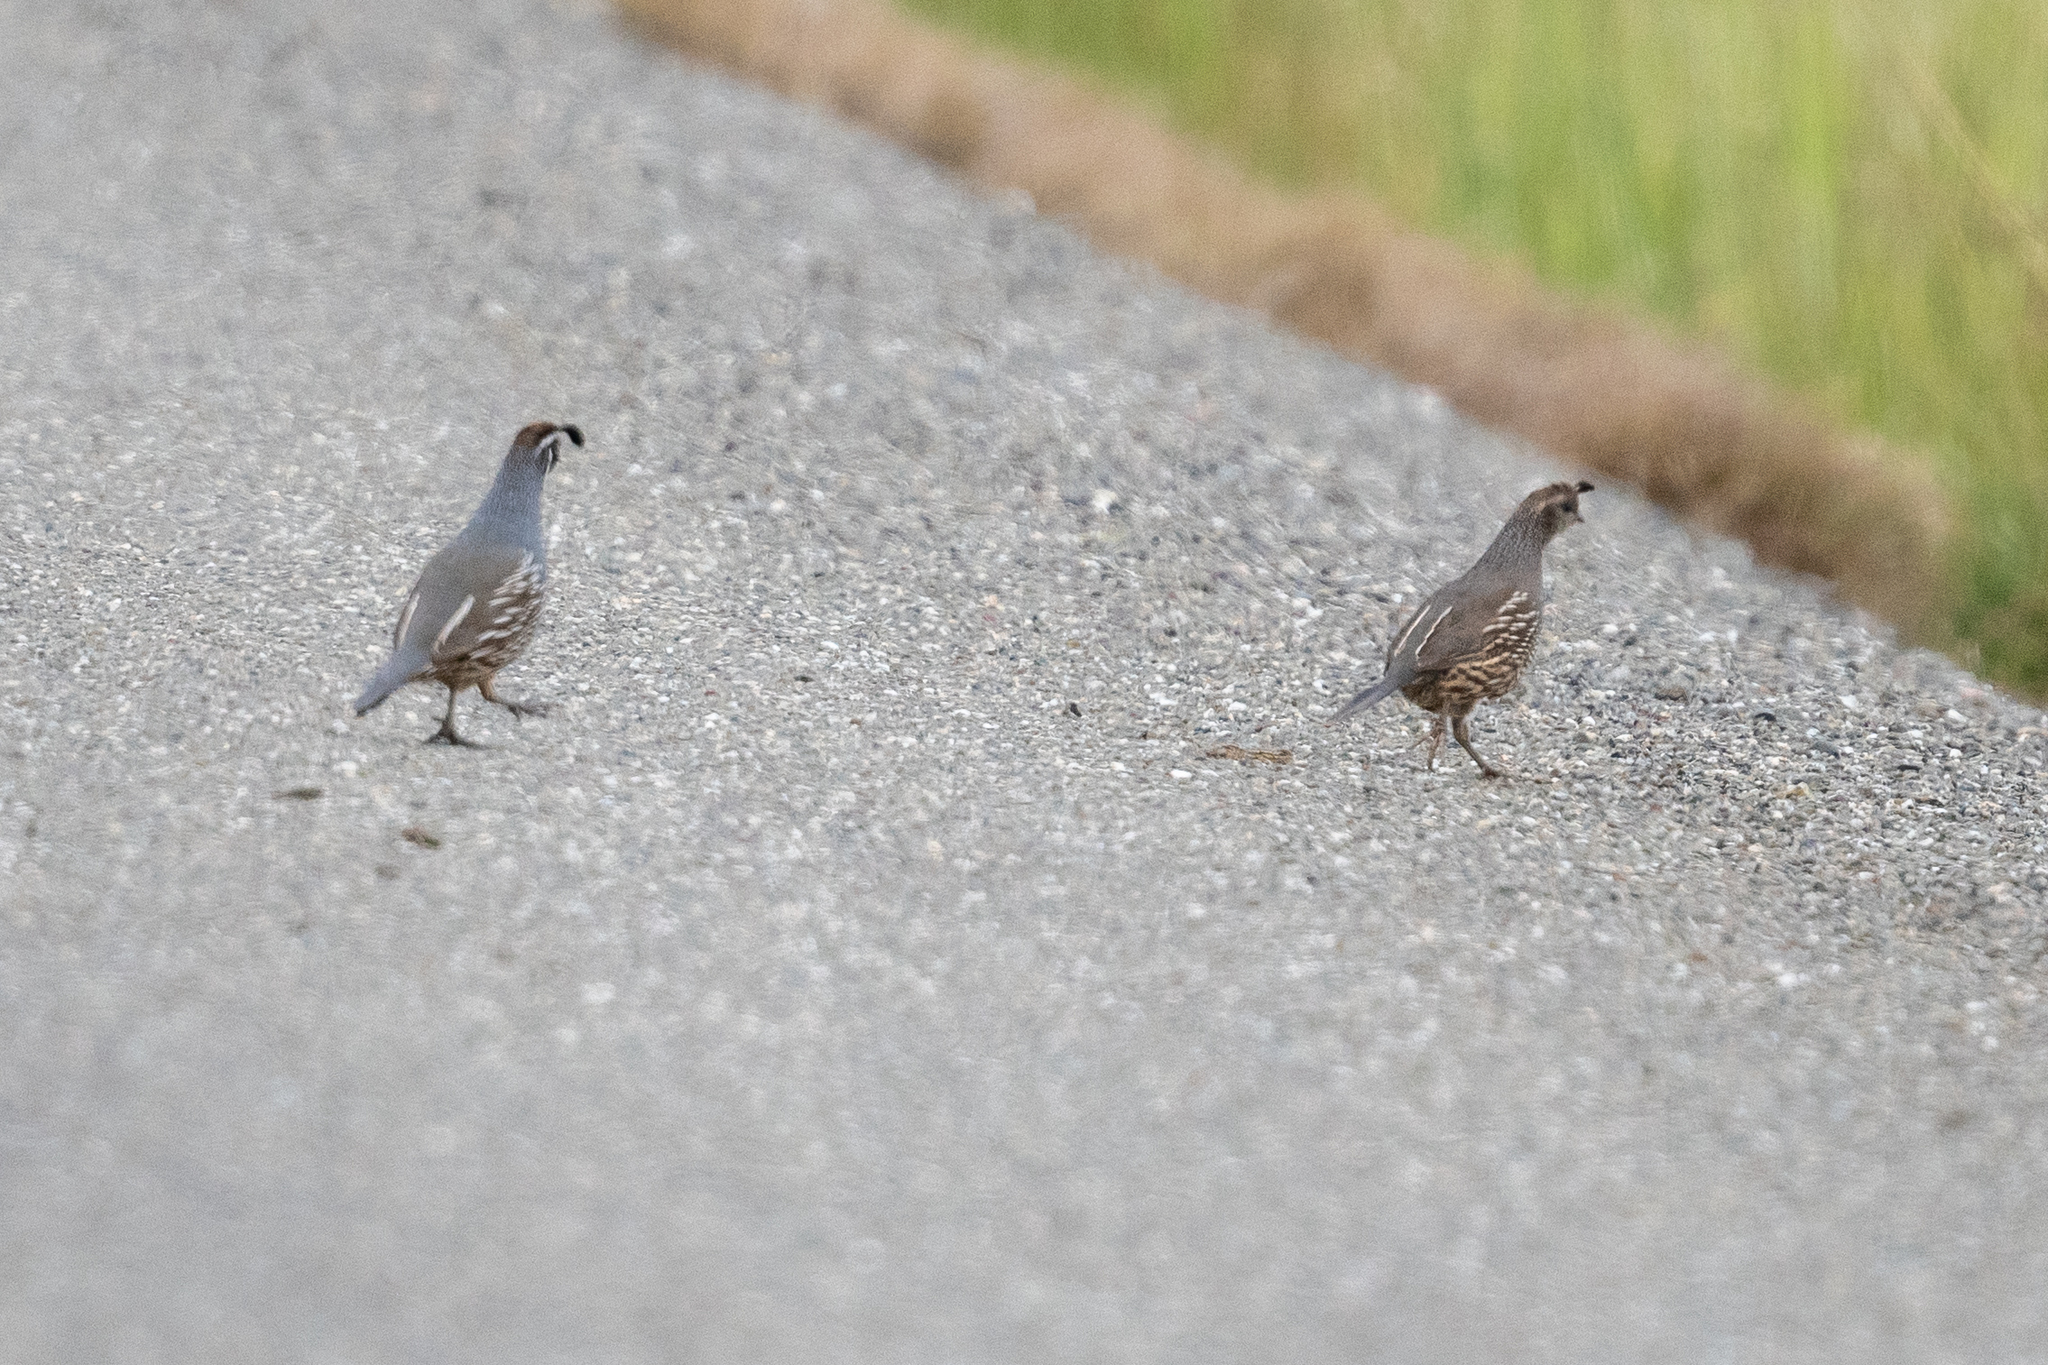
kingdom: Animalia
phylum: Chordata
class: Aves
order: Galliformes
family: Odontophoridae
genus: Callipepla
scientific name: Callipepla californica
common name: California quail
